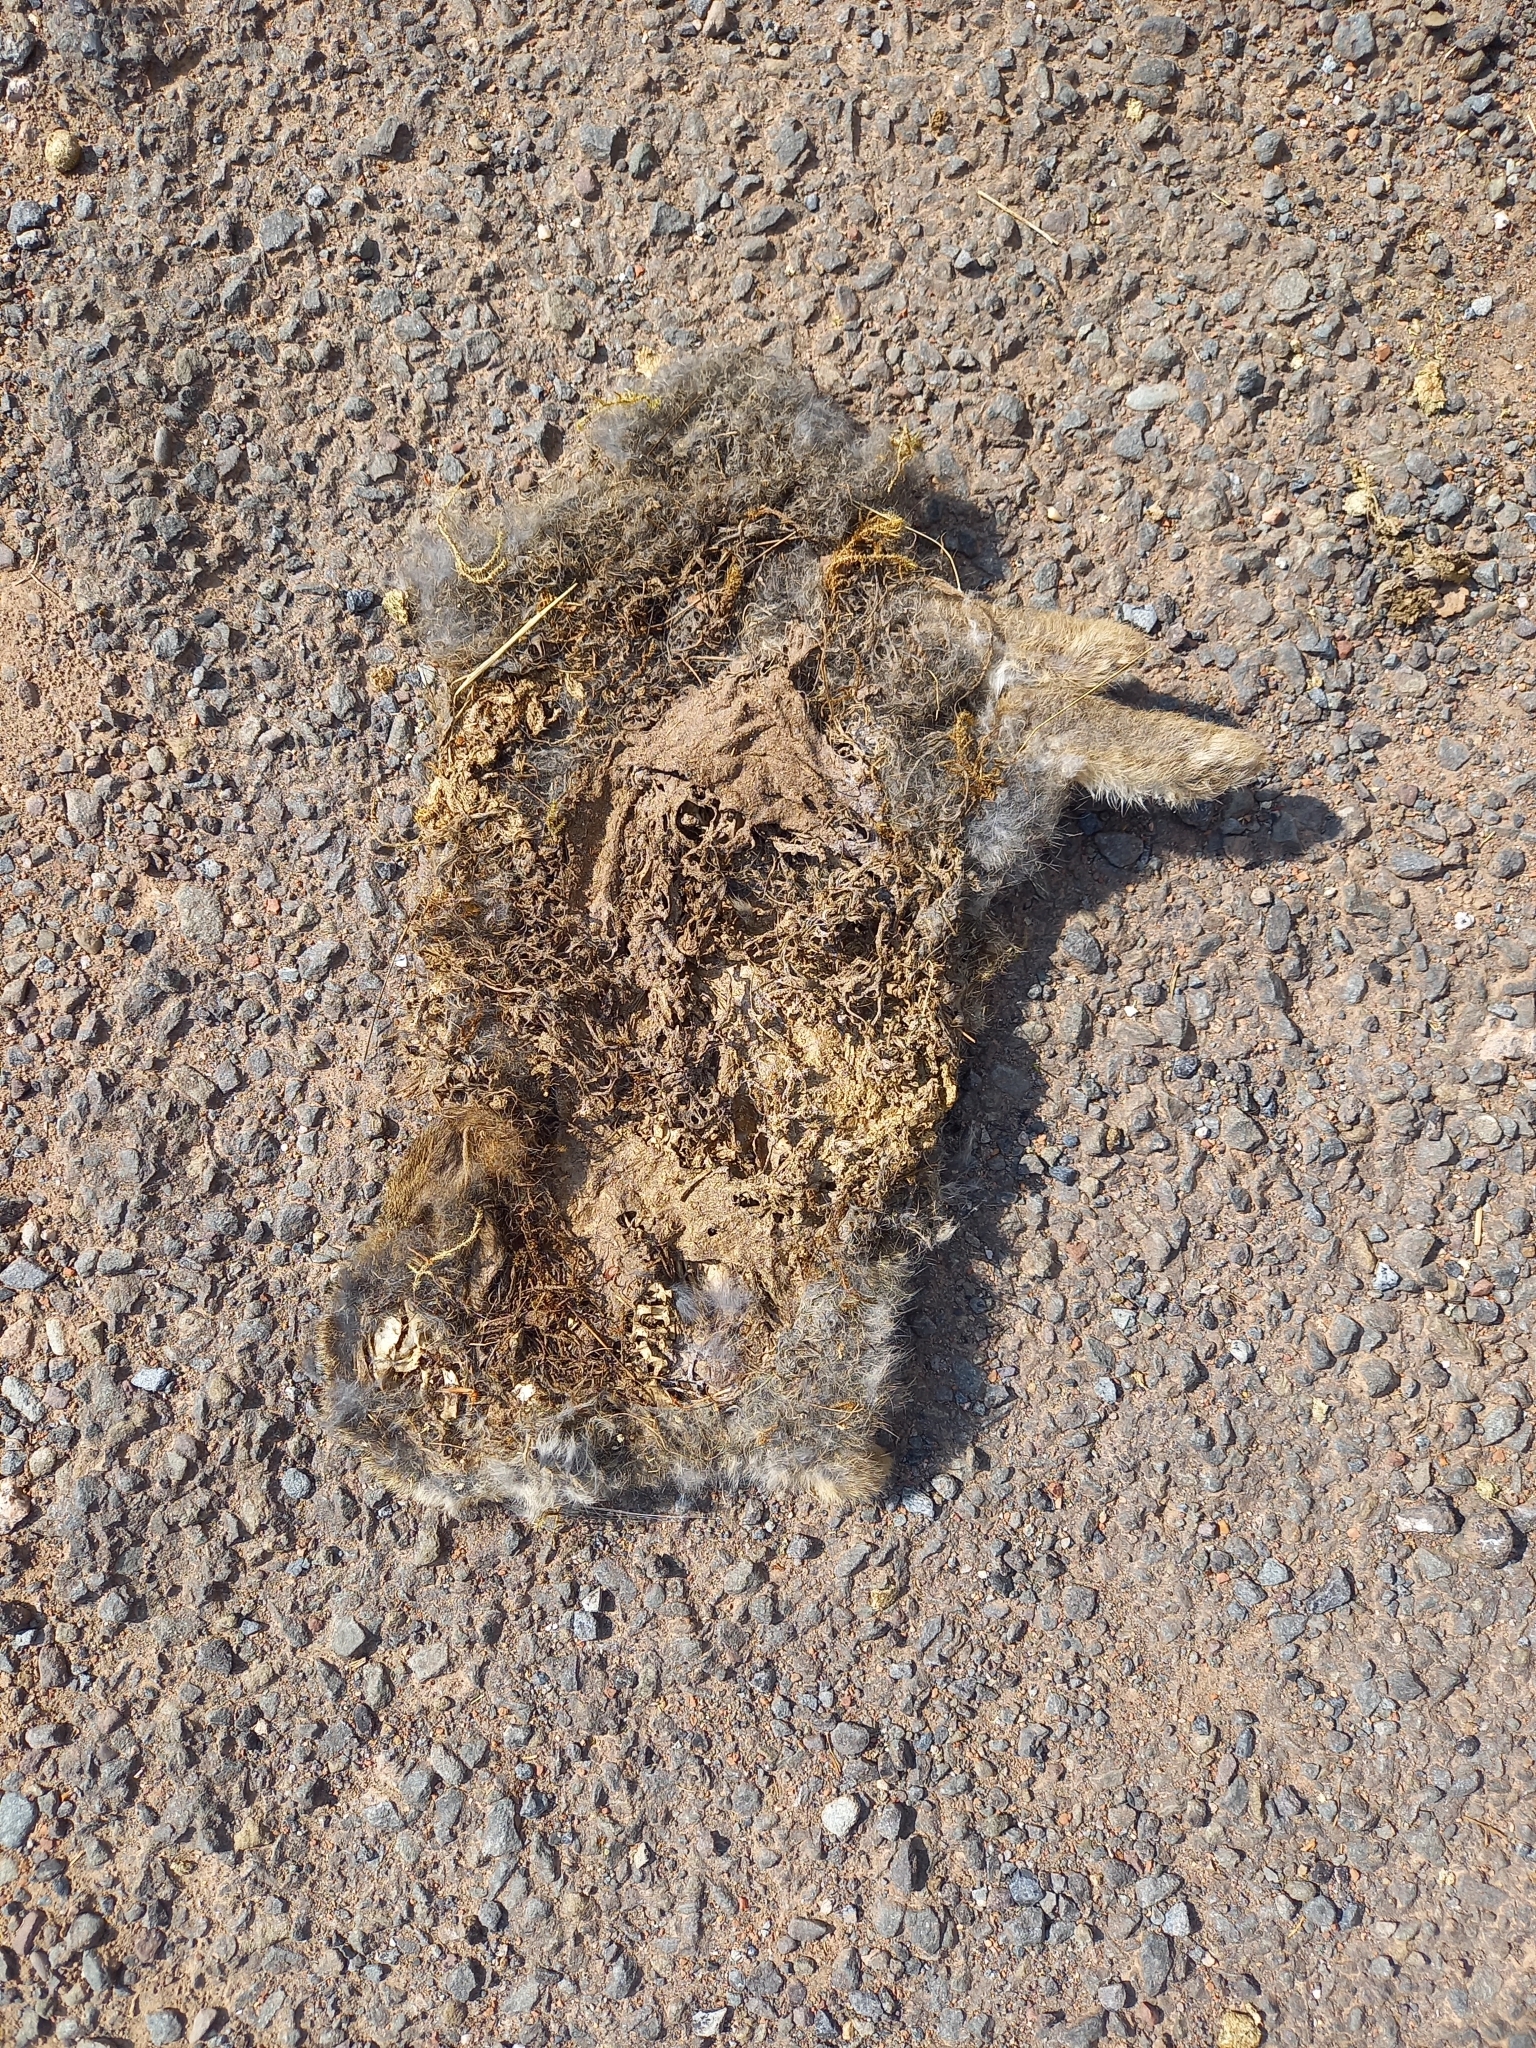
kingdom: Animalia
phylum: Chordata
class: Mammalia
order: Lagomorpha
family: Leporidae
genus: Oryctolagus
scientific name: Oryctolagus cuniculus
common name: European rabbit
